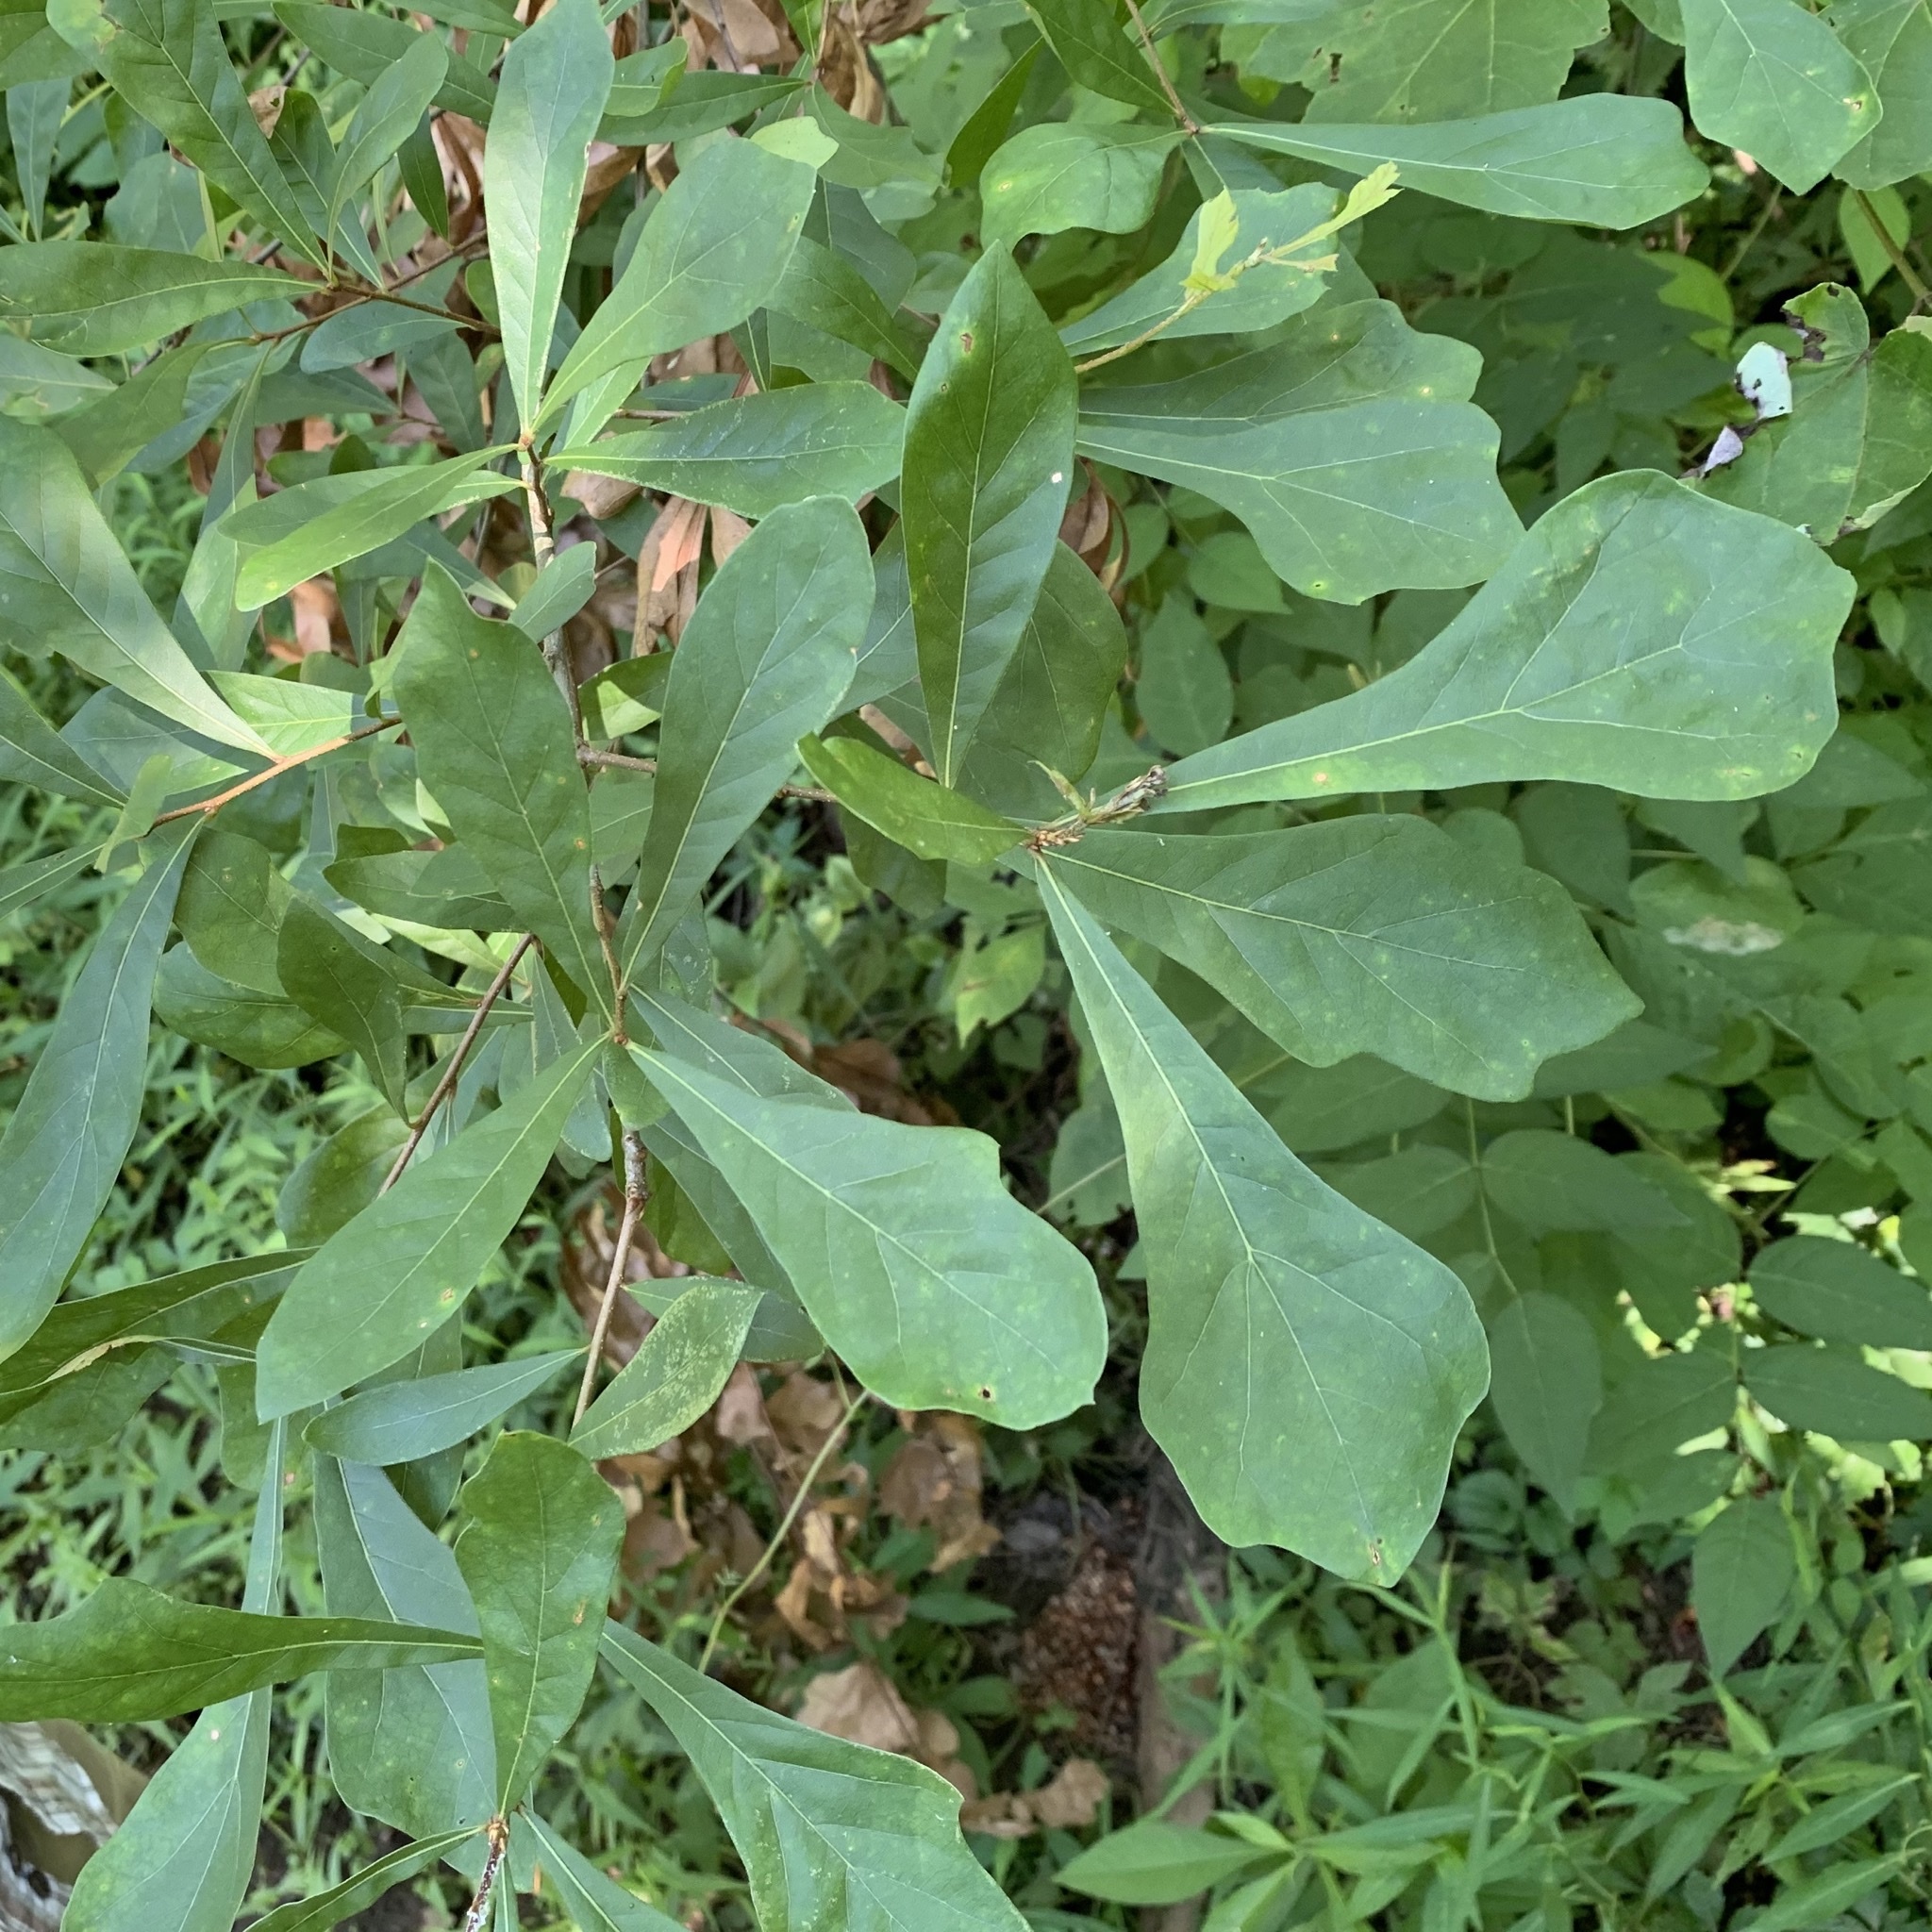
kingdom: Plantae
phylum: Tracheophyta
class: Magnoliopsida
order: Fagales
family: Fagaceae
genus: Quercus
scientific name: Quercus nigra
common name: Water oak
